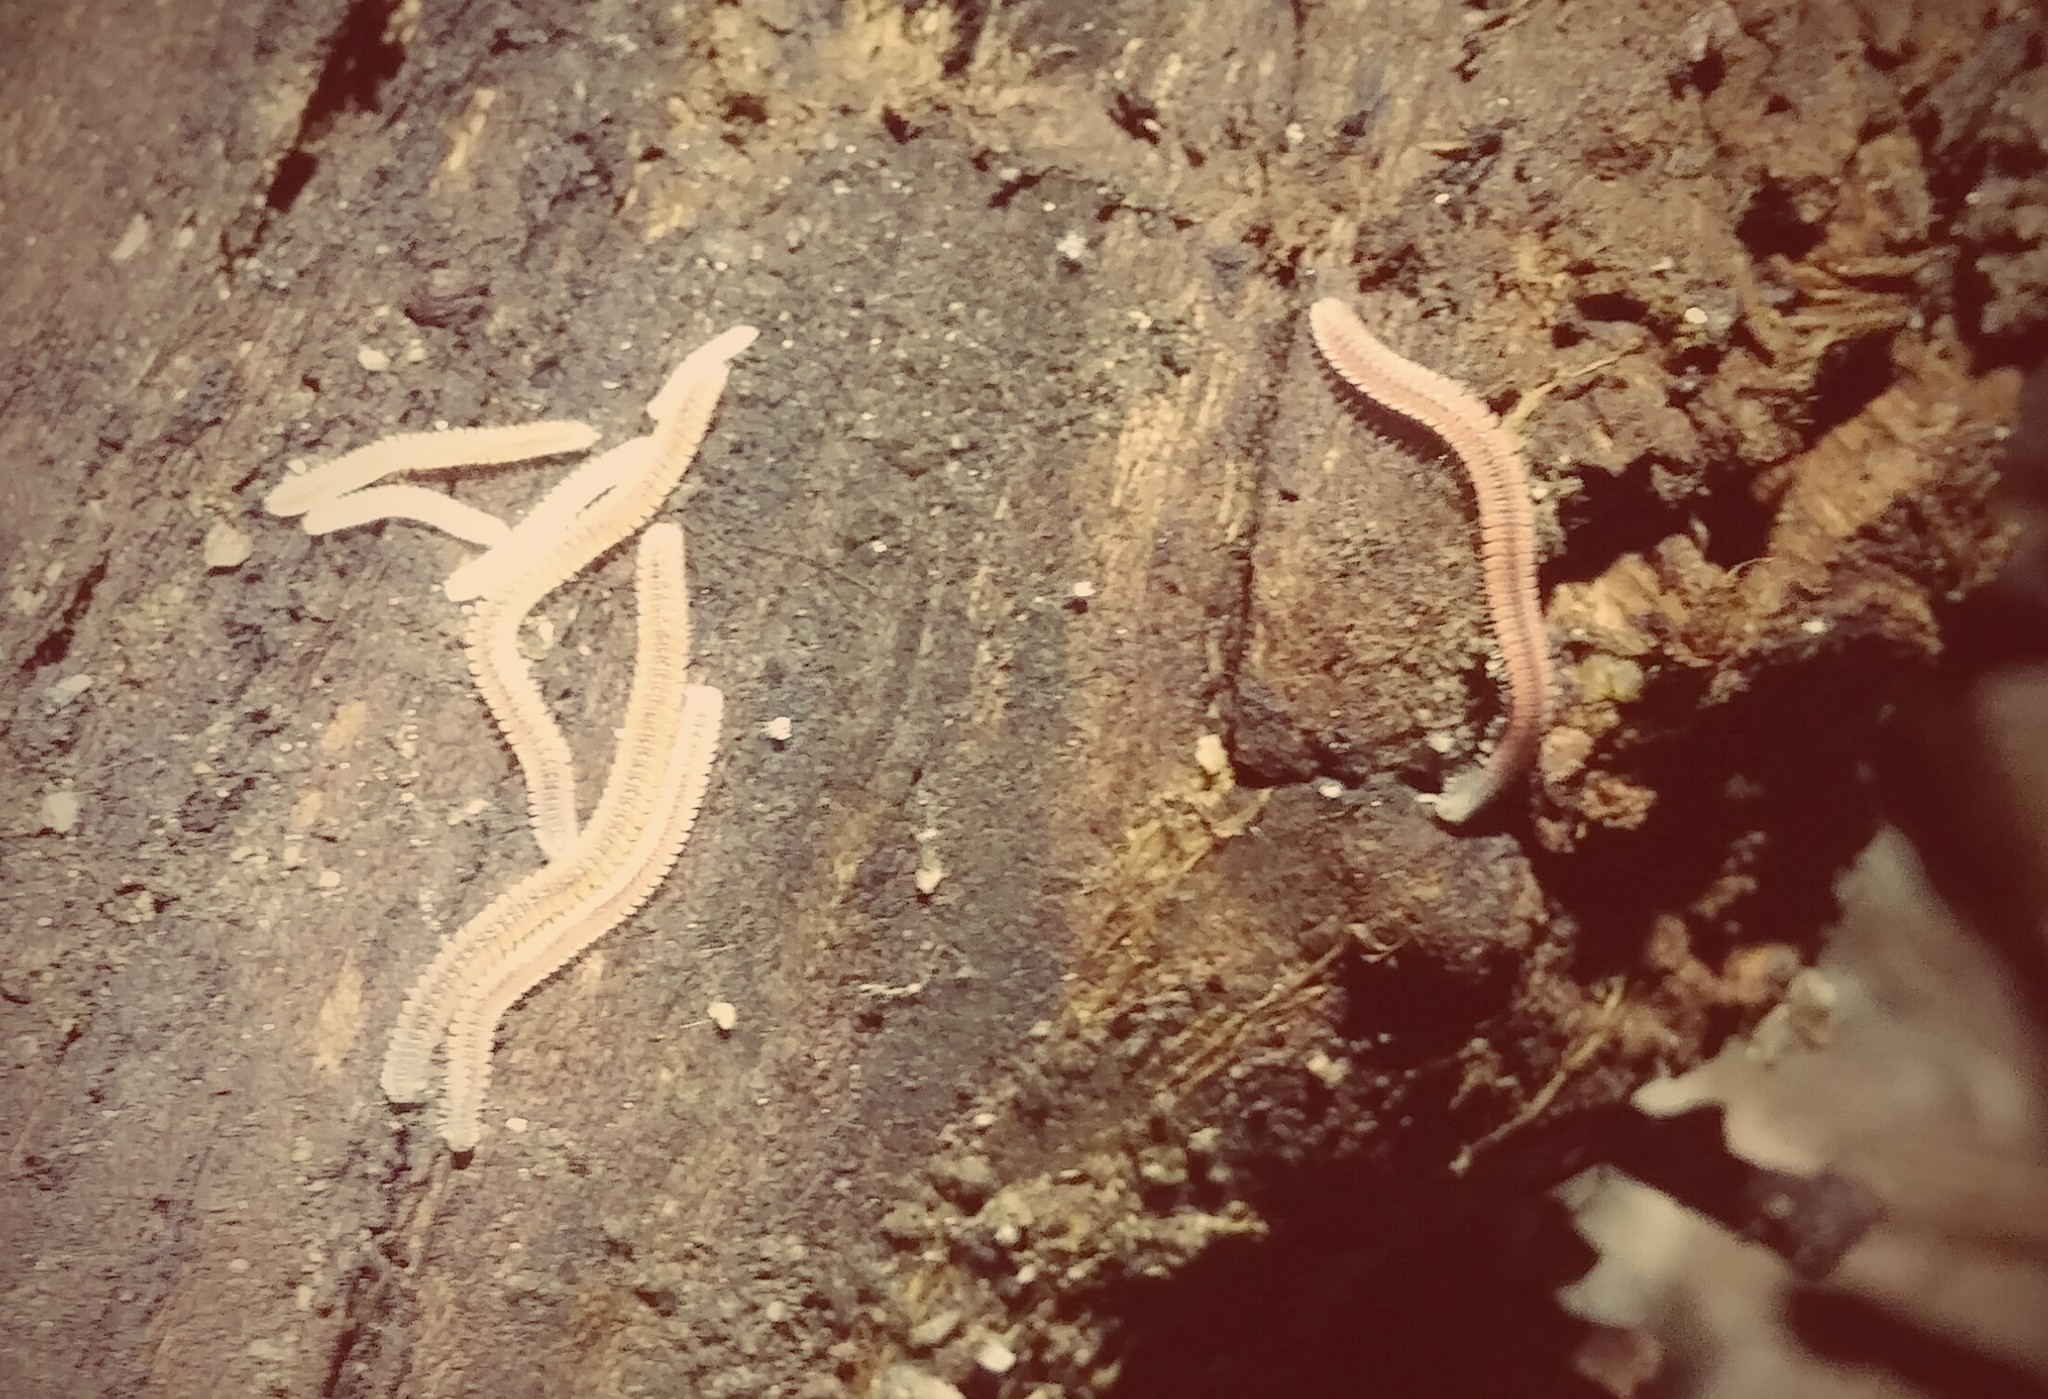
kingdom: Animalia
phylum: Arthropoda
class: Diplopoda
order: Platydesmida
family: Andrognathidae
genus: Gosodesmus
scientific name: Gosodesmus claremontus
